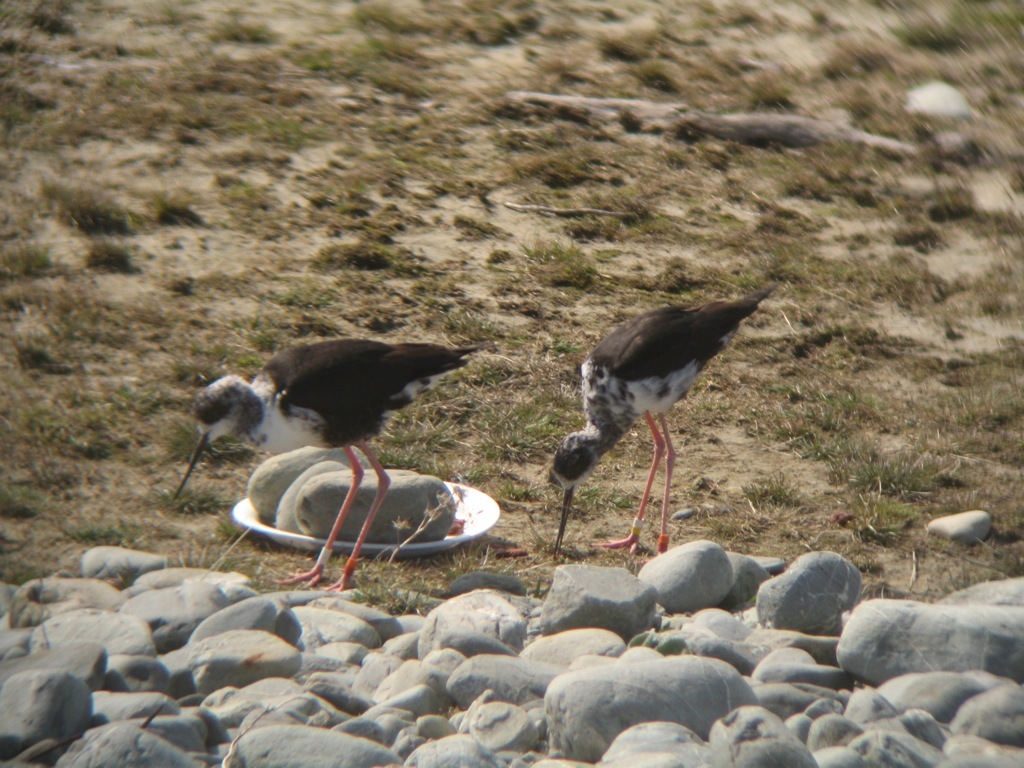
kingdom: Animalia
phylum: Chordata
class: Aves
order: Charadriiformes
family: Recurvirostridae
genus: Himantopus
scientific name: Himantopus novaezelandiae
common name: Black stilt
